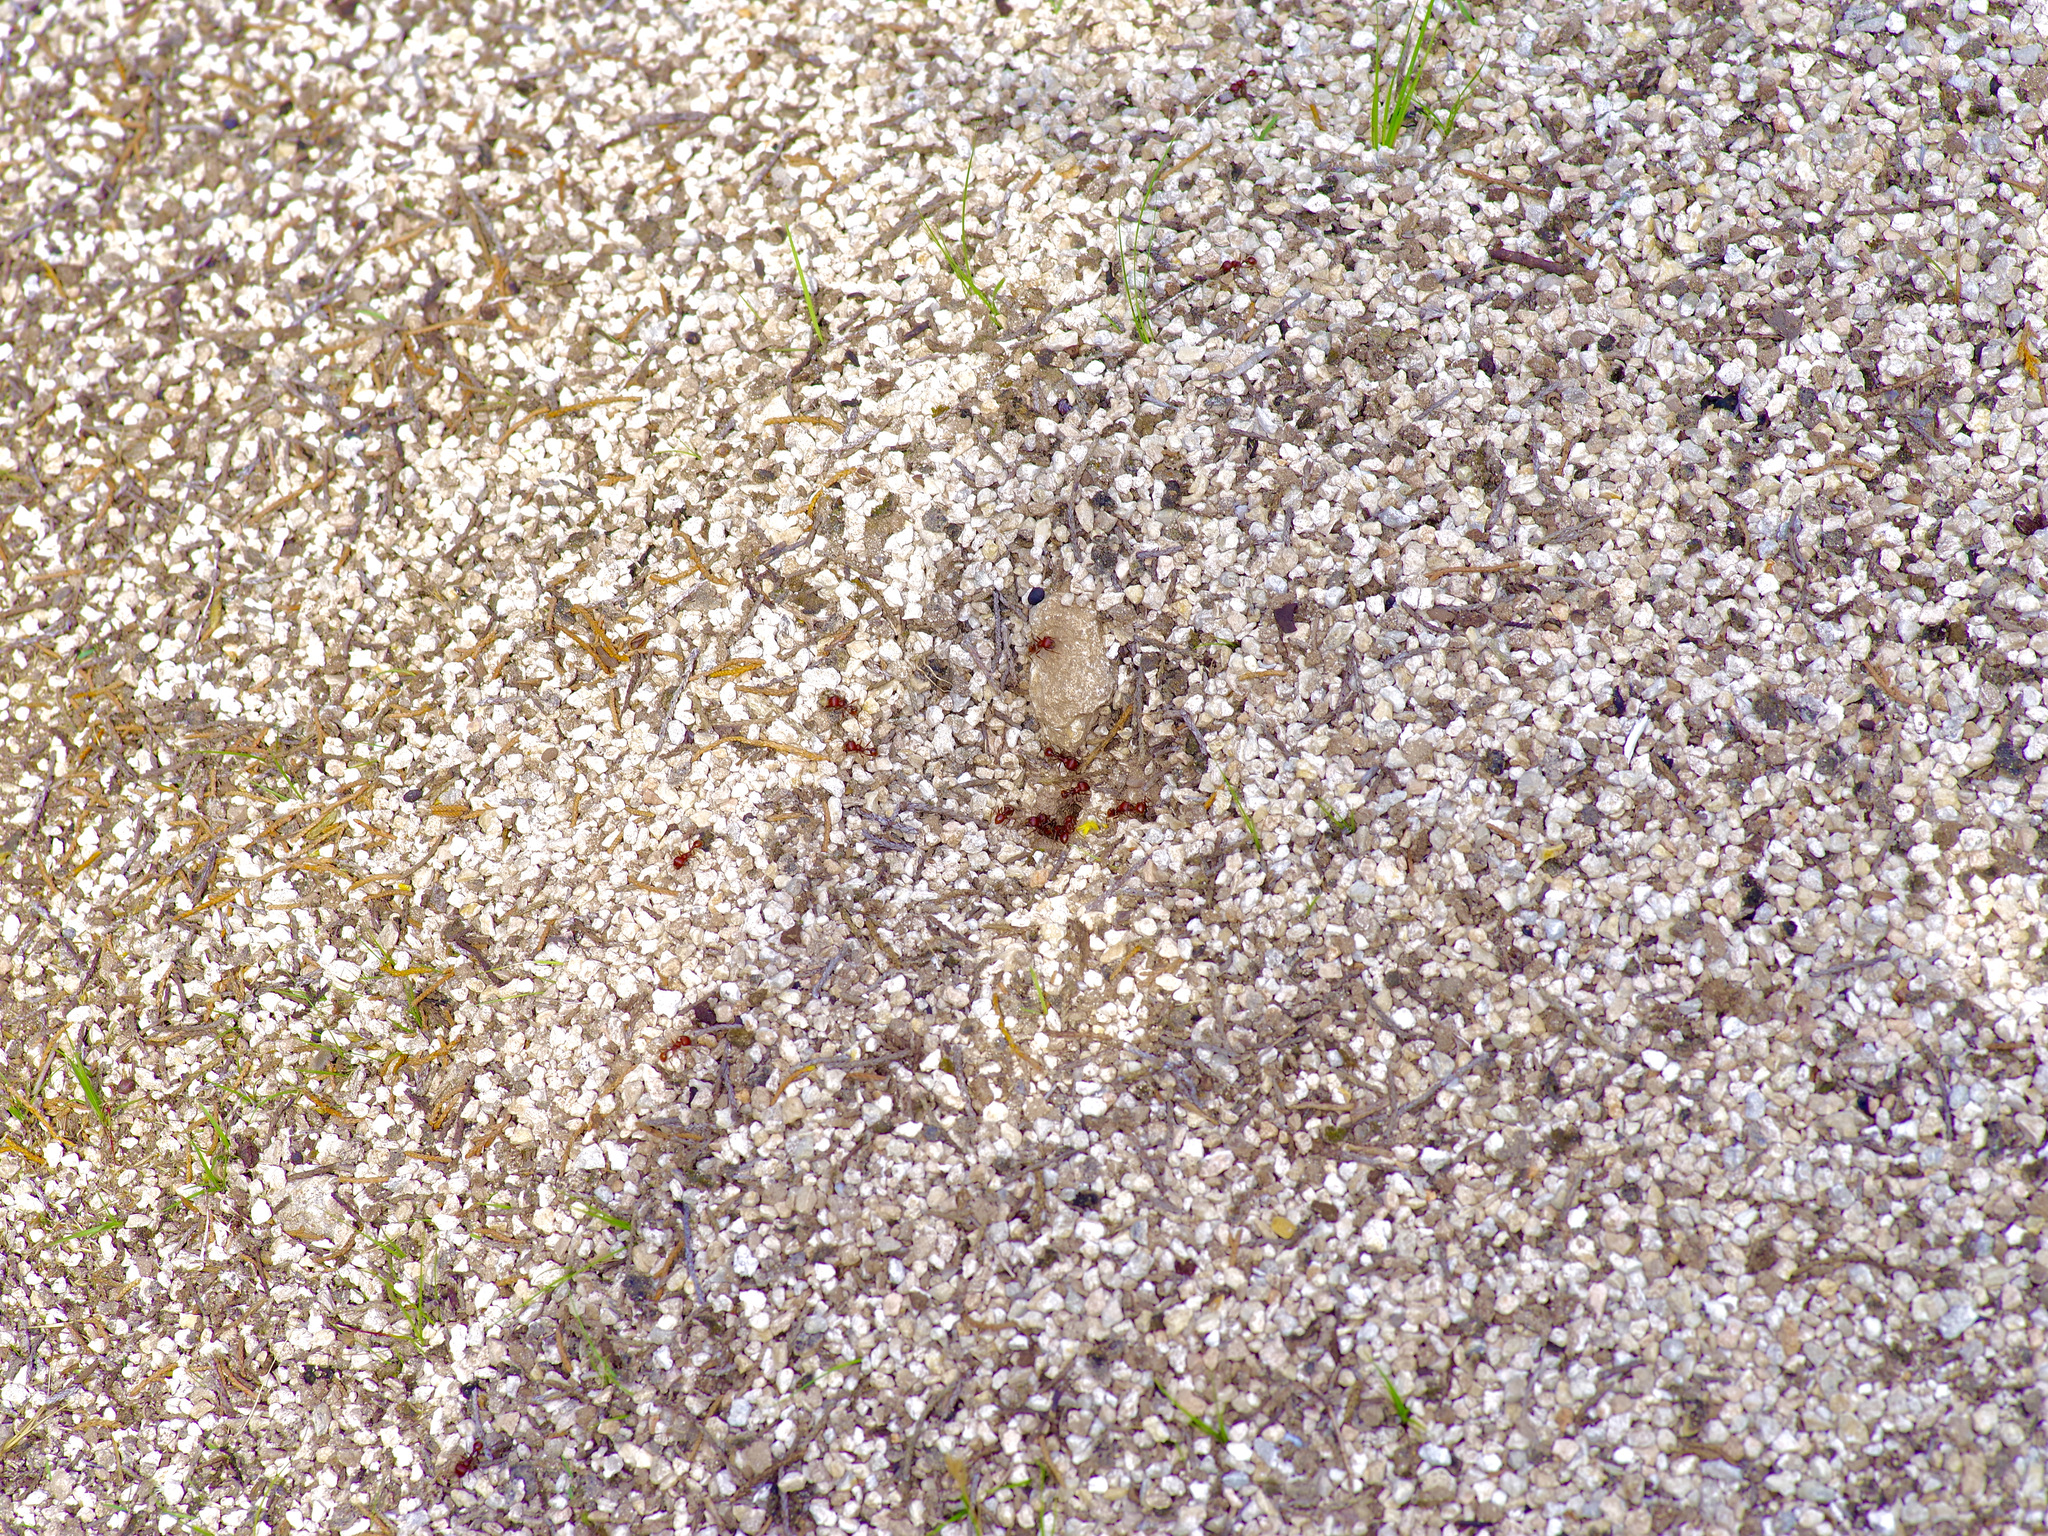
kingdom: Animalia
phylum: Arthropoda
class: Insecta
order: Hymenoptera
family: Formicidae
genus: Pogonomyrmex
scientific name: Pogonomyrmex barbatus
